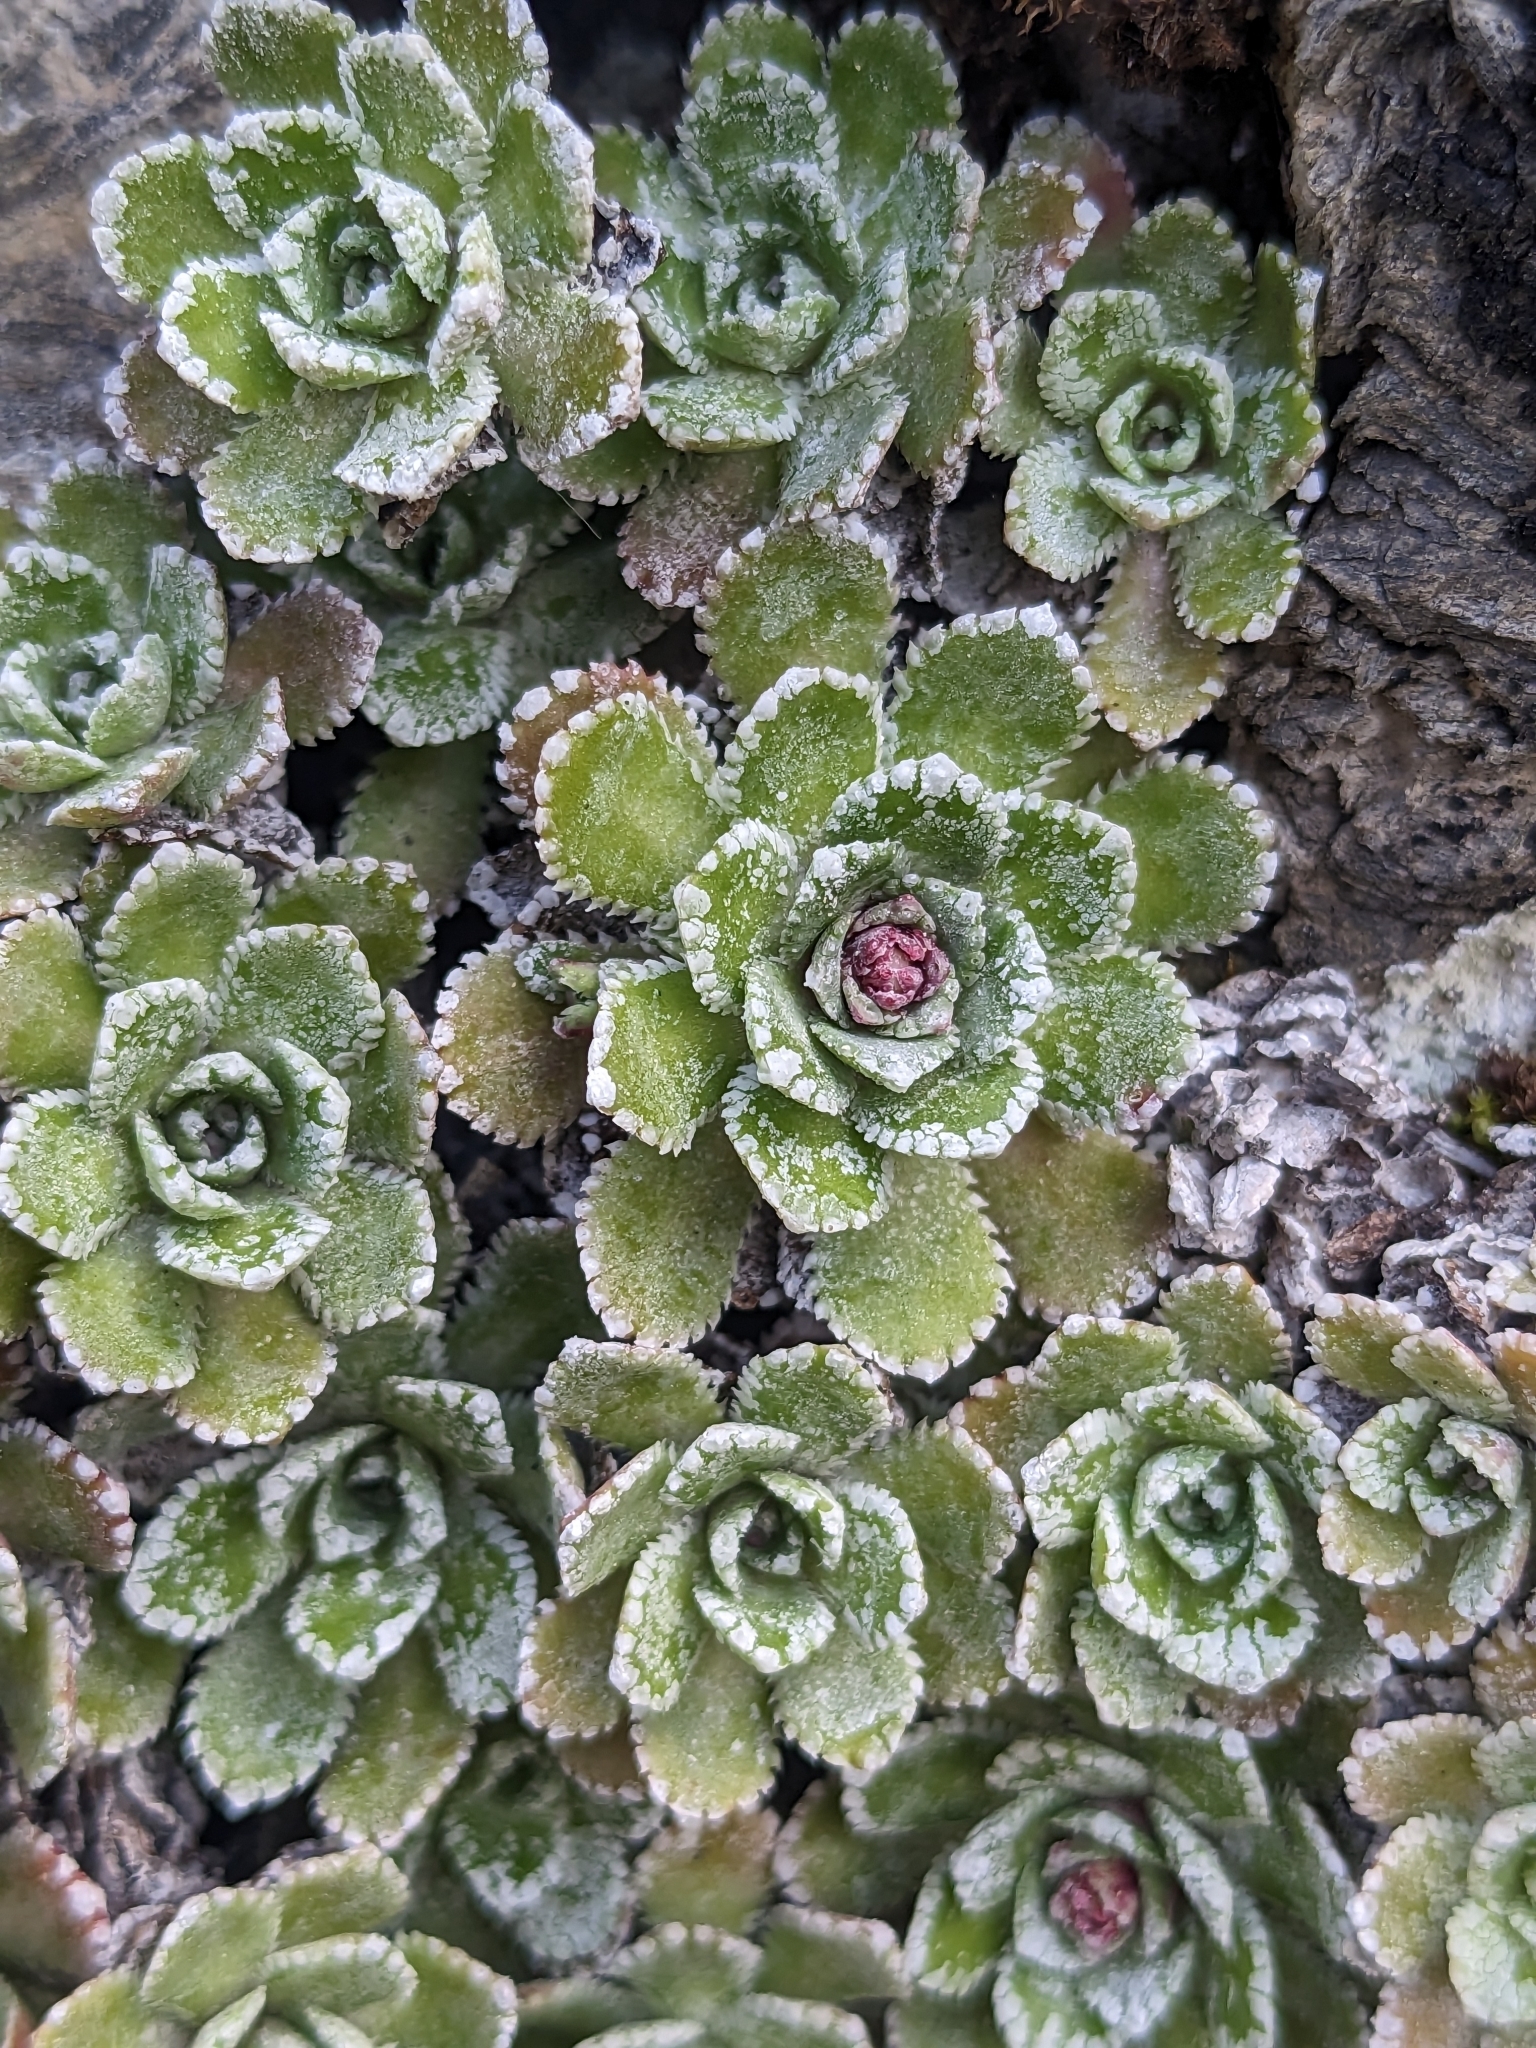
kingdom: Plantae
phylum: Tracheophyta
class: Magnoliopsida
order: Saxifragales
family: Saxifragaceae
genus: Saxifraga
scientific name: Saxifraga paniculata
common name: Livelong saxifrage
